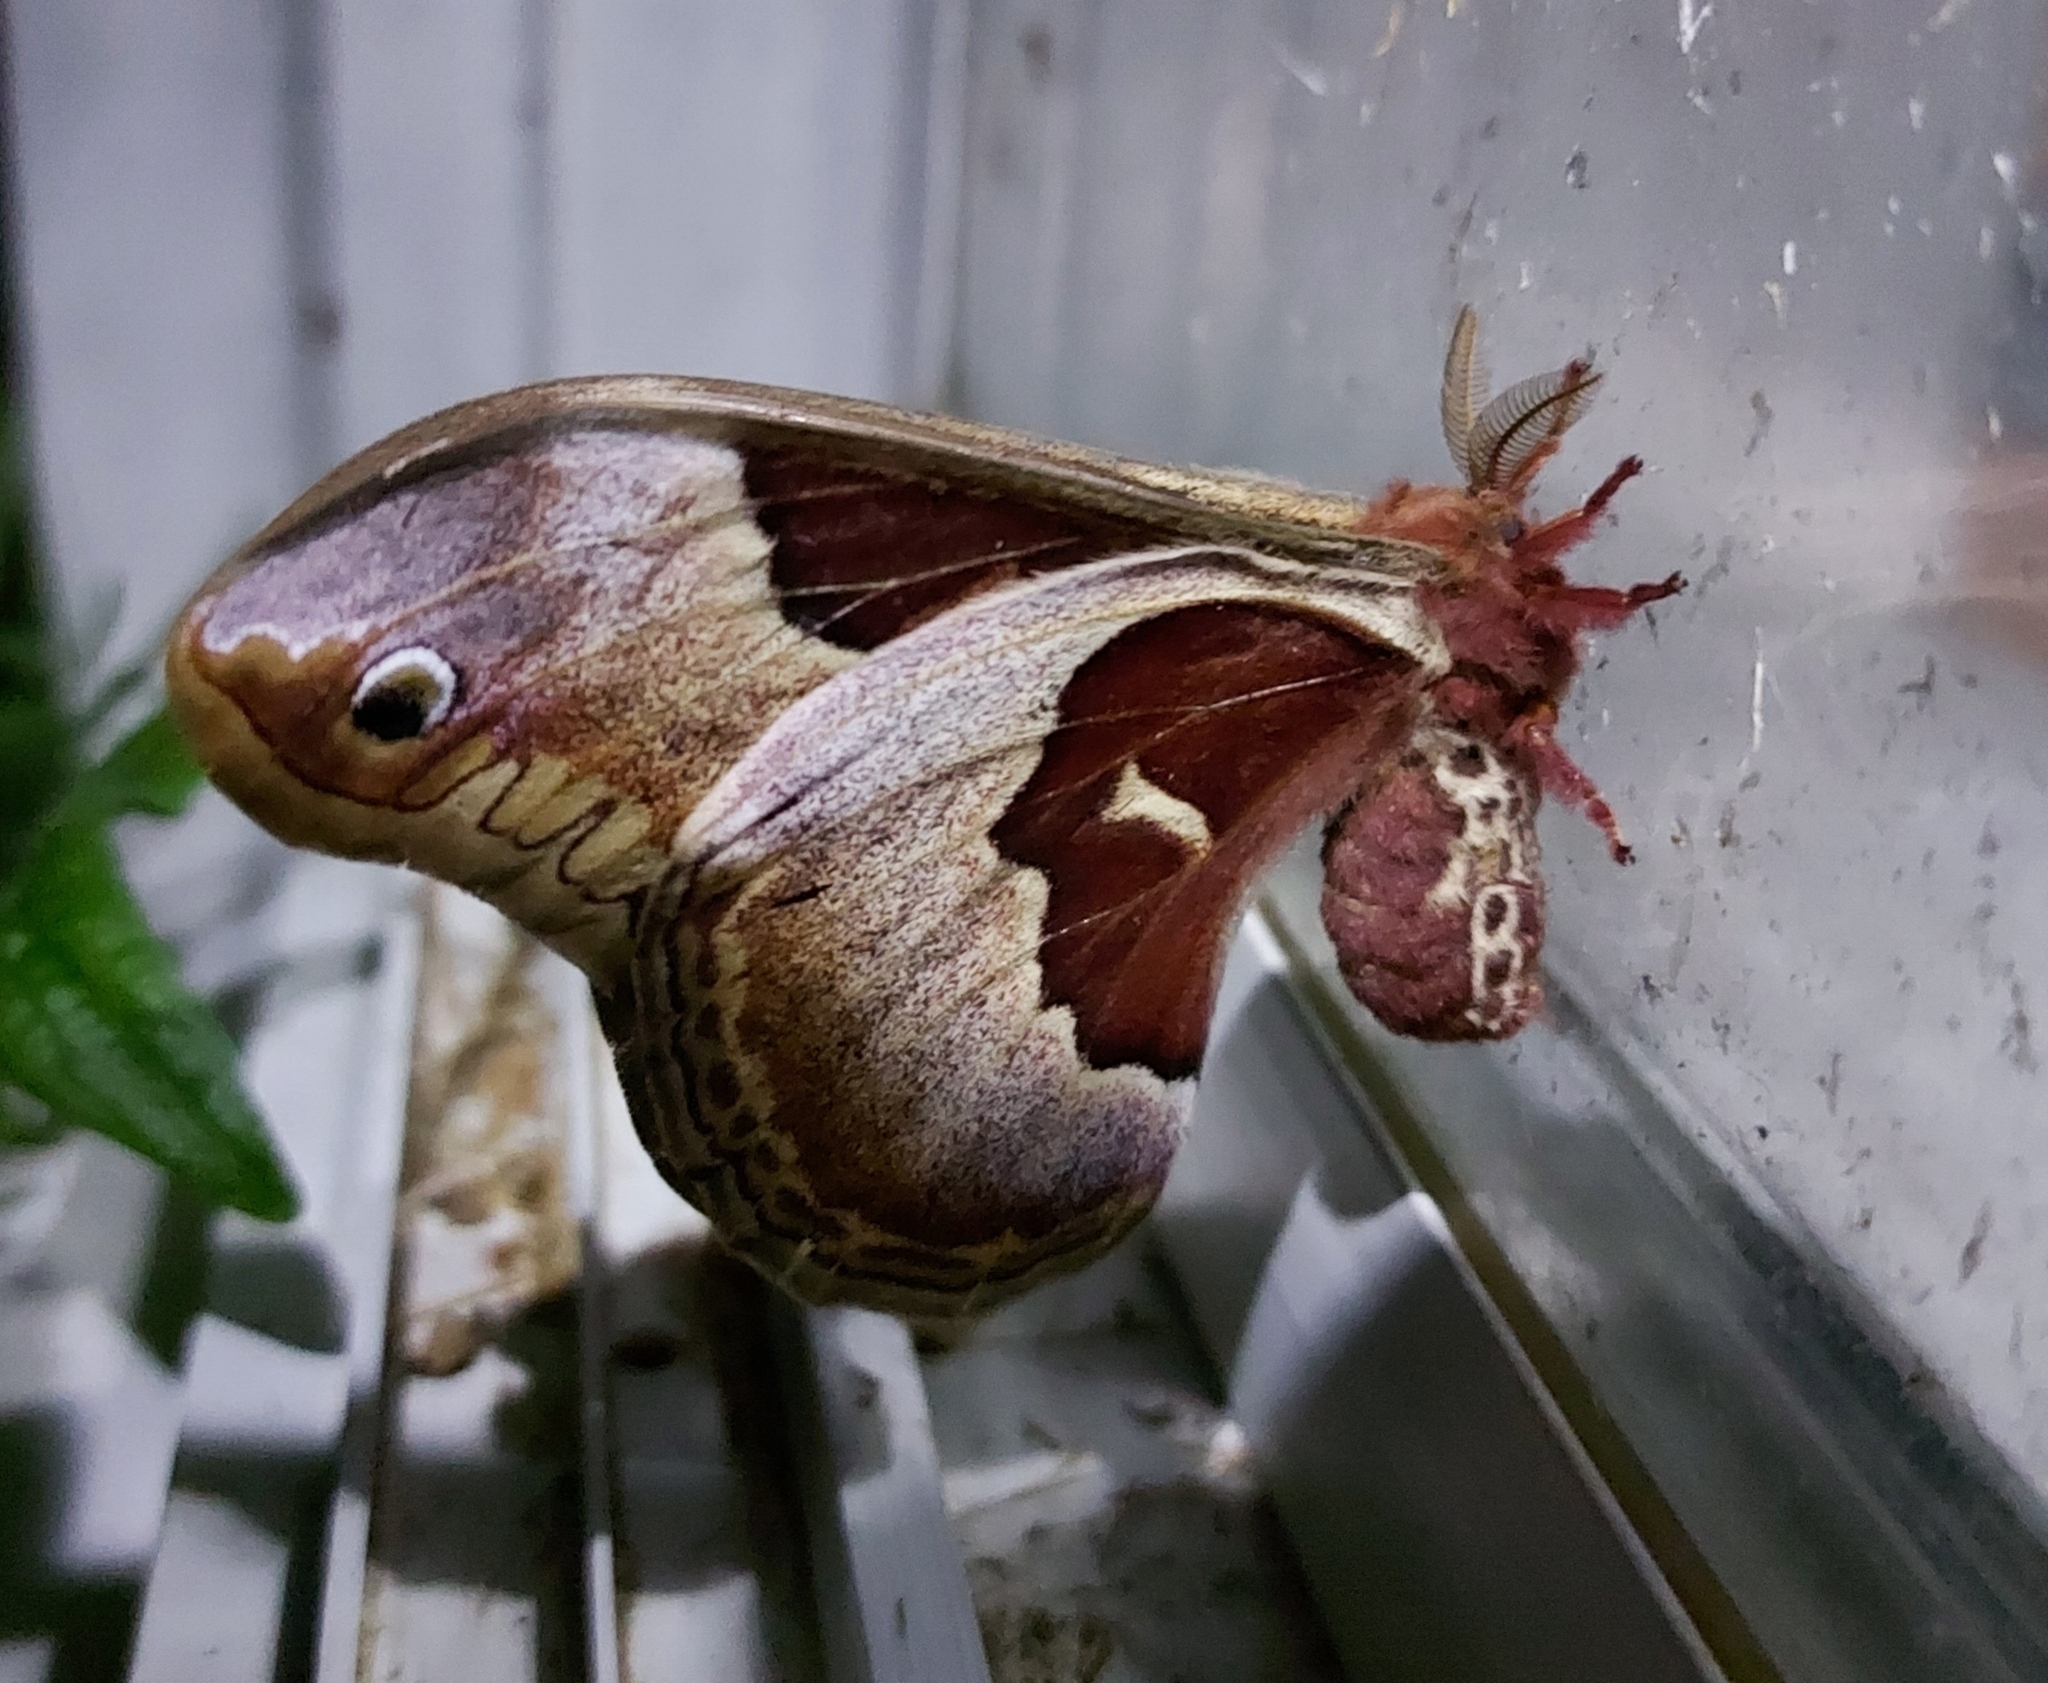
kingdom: Animalia
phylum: Arthropoda
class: Insecta
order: Lepidoptera
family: Saturniidae
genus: Callosamia
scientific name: Callosamia promethea
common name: Promethea silkmoth
